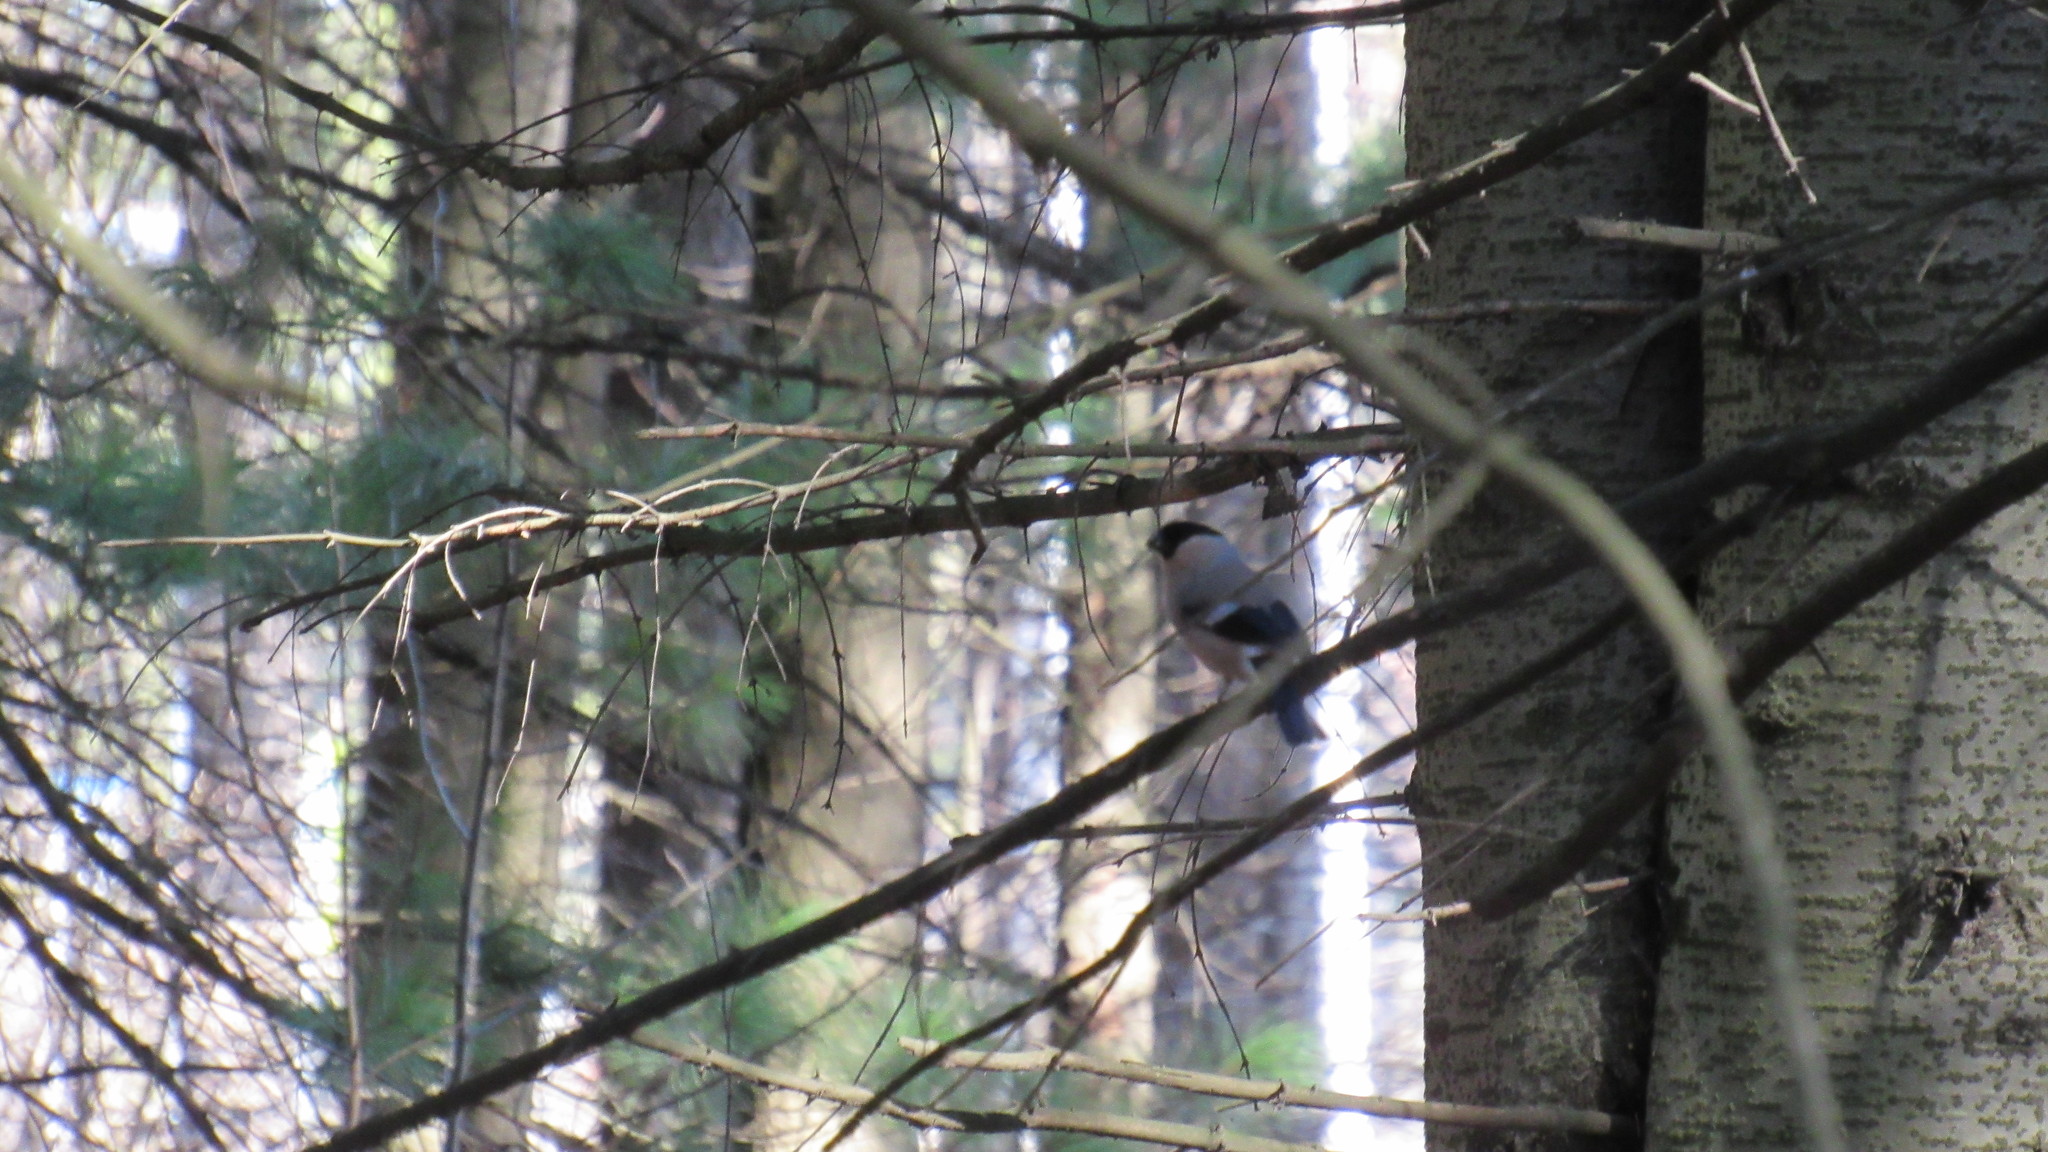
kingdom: Animalia
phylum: Chordata
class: Aves
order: Passeriformes
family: Fringillidae
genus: Pyrrhula
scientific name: Pyrrhula pyrrhula
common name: Eurasian bullfinch
